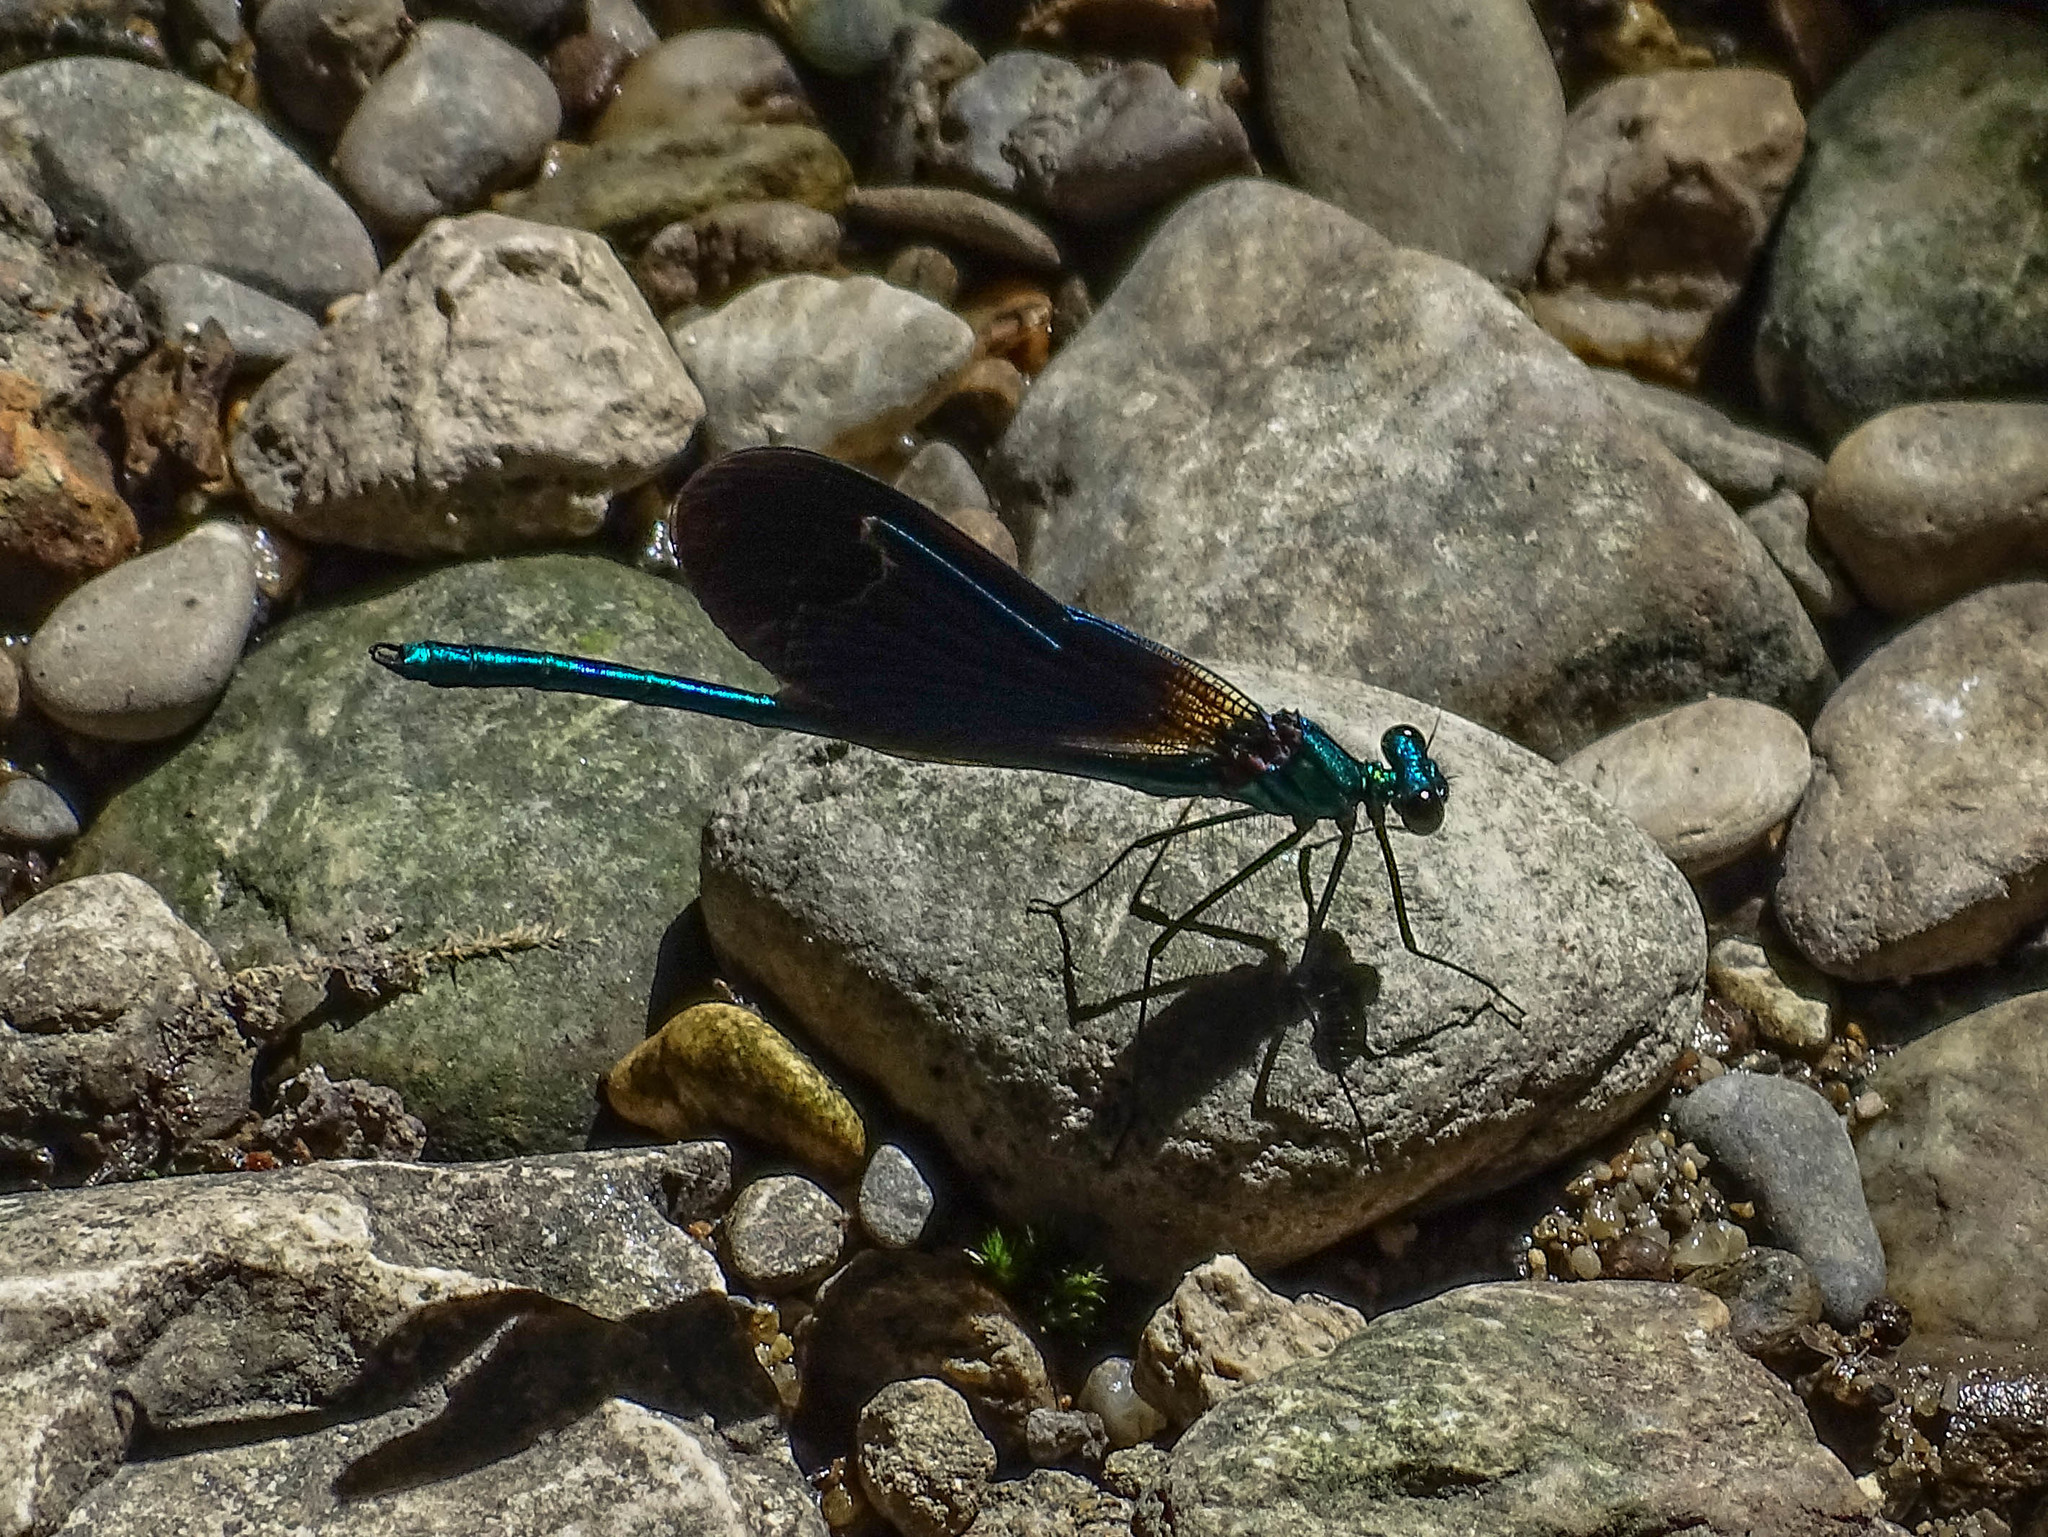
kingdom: Animalia
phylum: Arthropoda
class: Insecta
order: Odonata
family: Calopterygidae
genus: Calopteryx
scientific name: Calopteryx virgo
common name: Beautiful demoiselle
